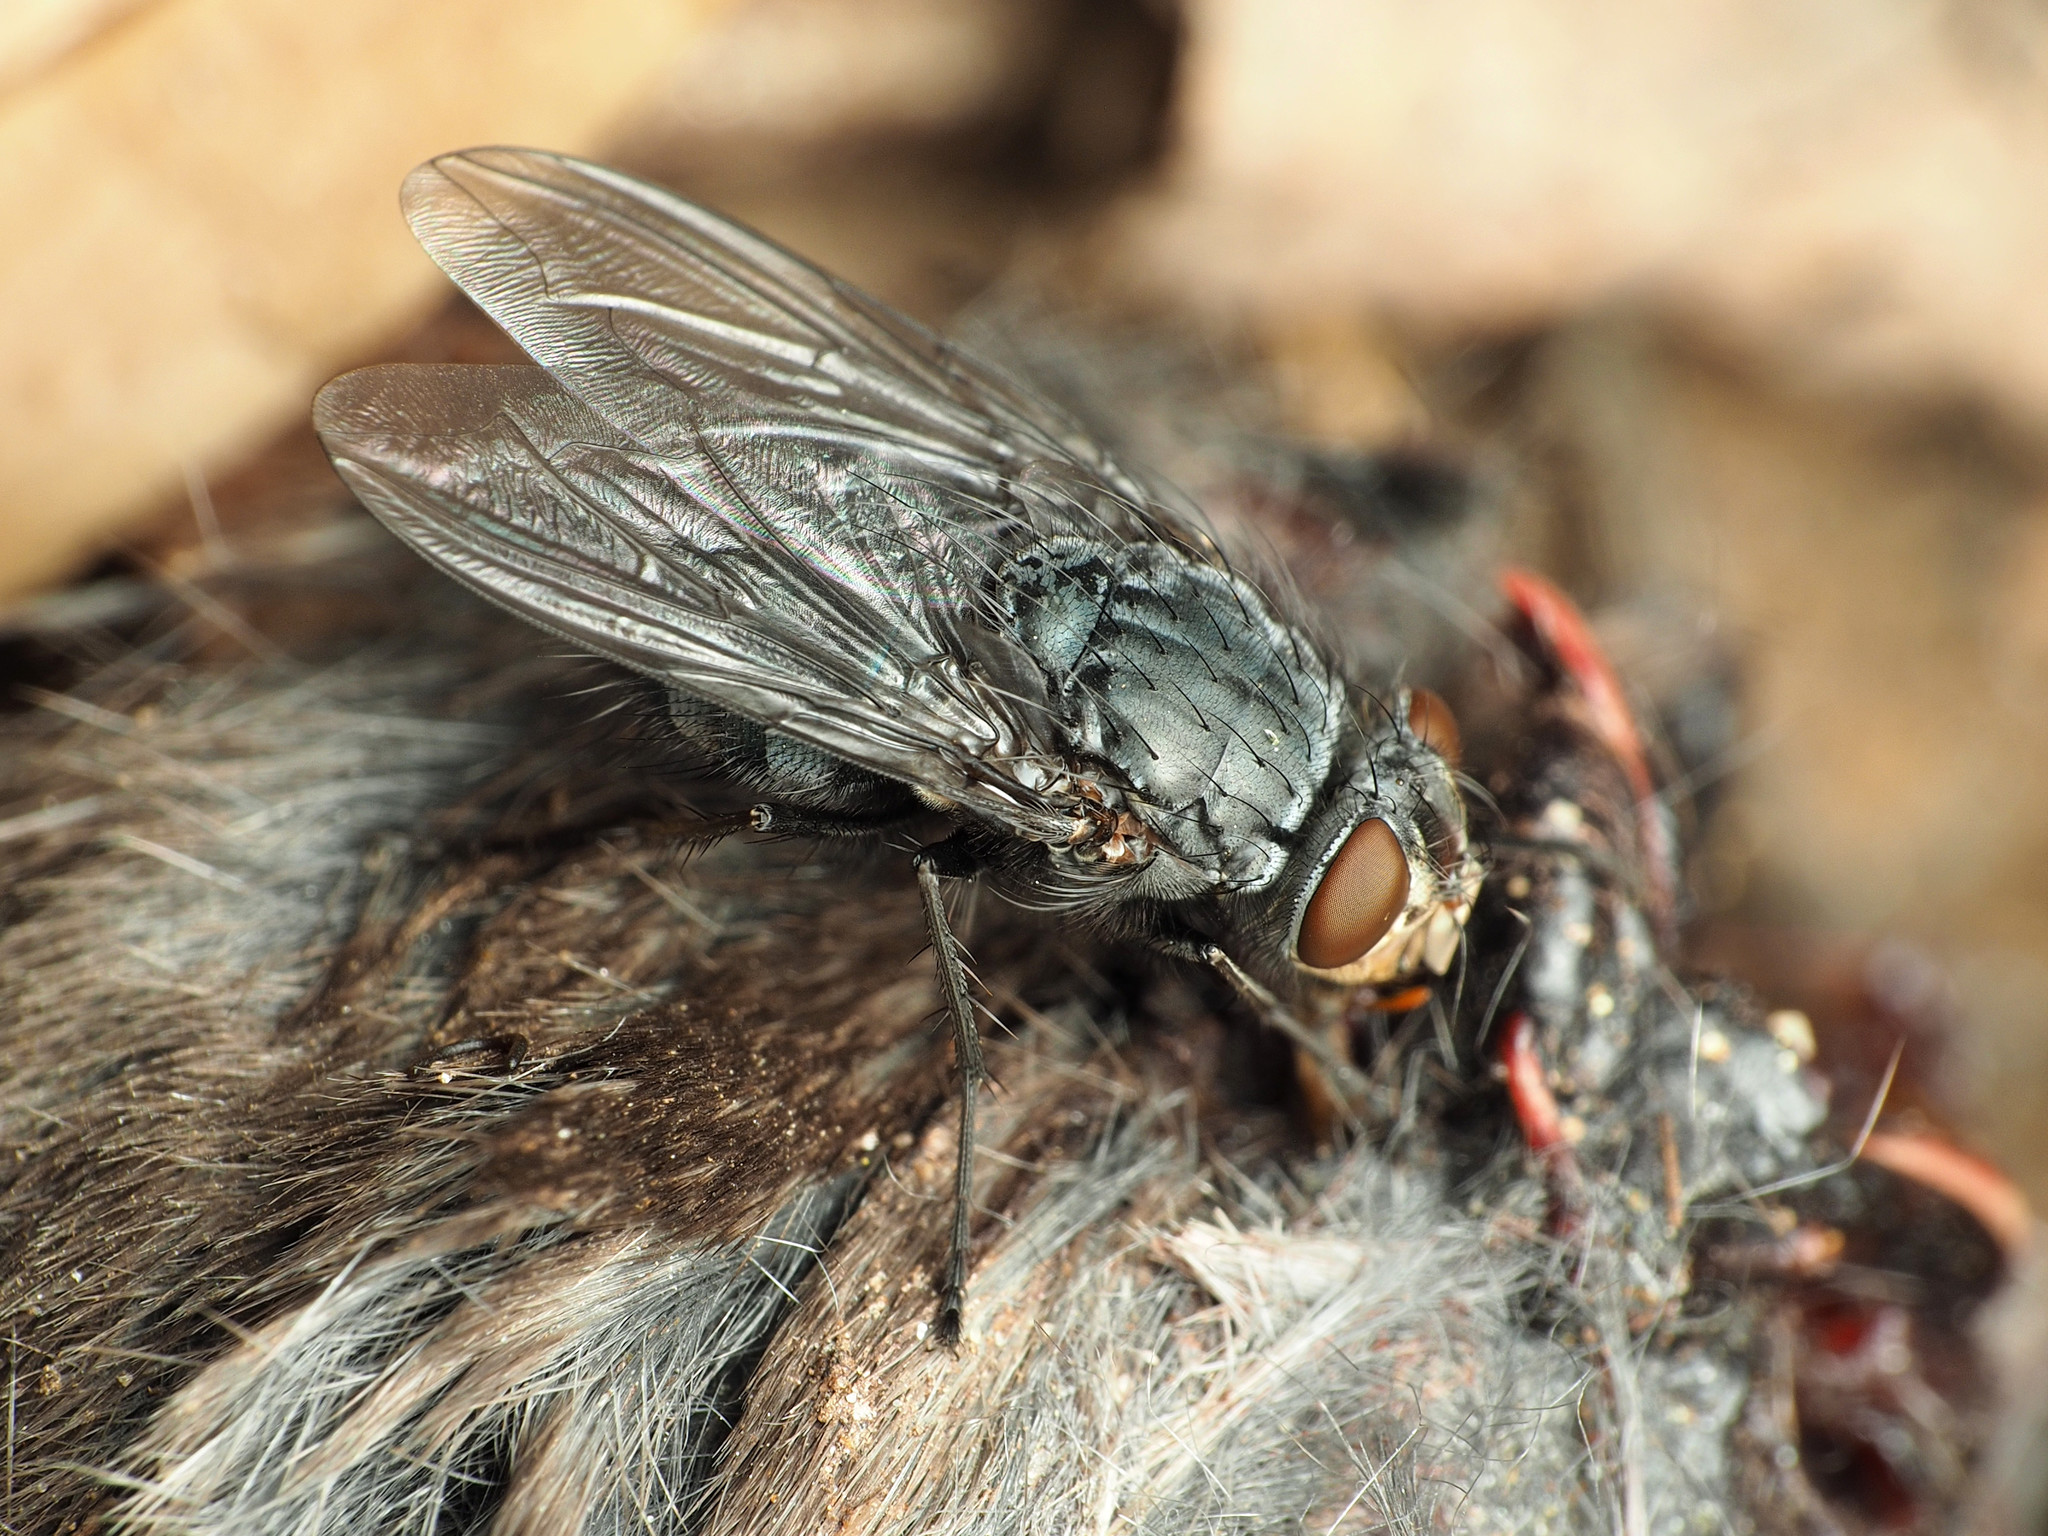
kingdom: Animalia
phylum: Arthropoda
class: Insecta
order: Diptera
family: Calliphoridae
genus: Calliphora
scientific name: Calliphora vicina
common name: Common blow flie
